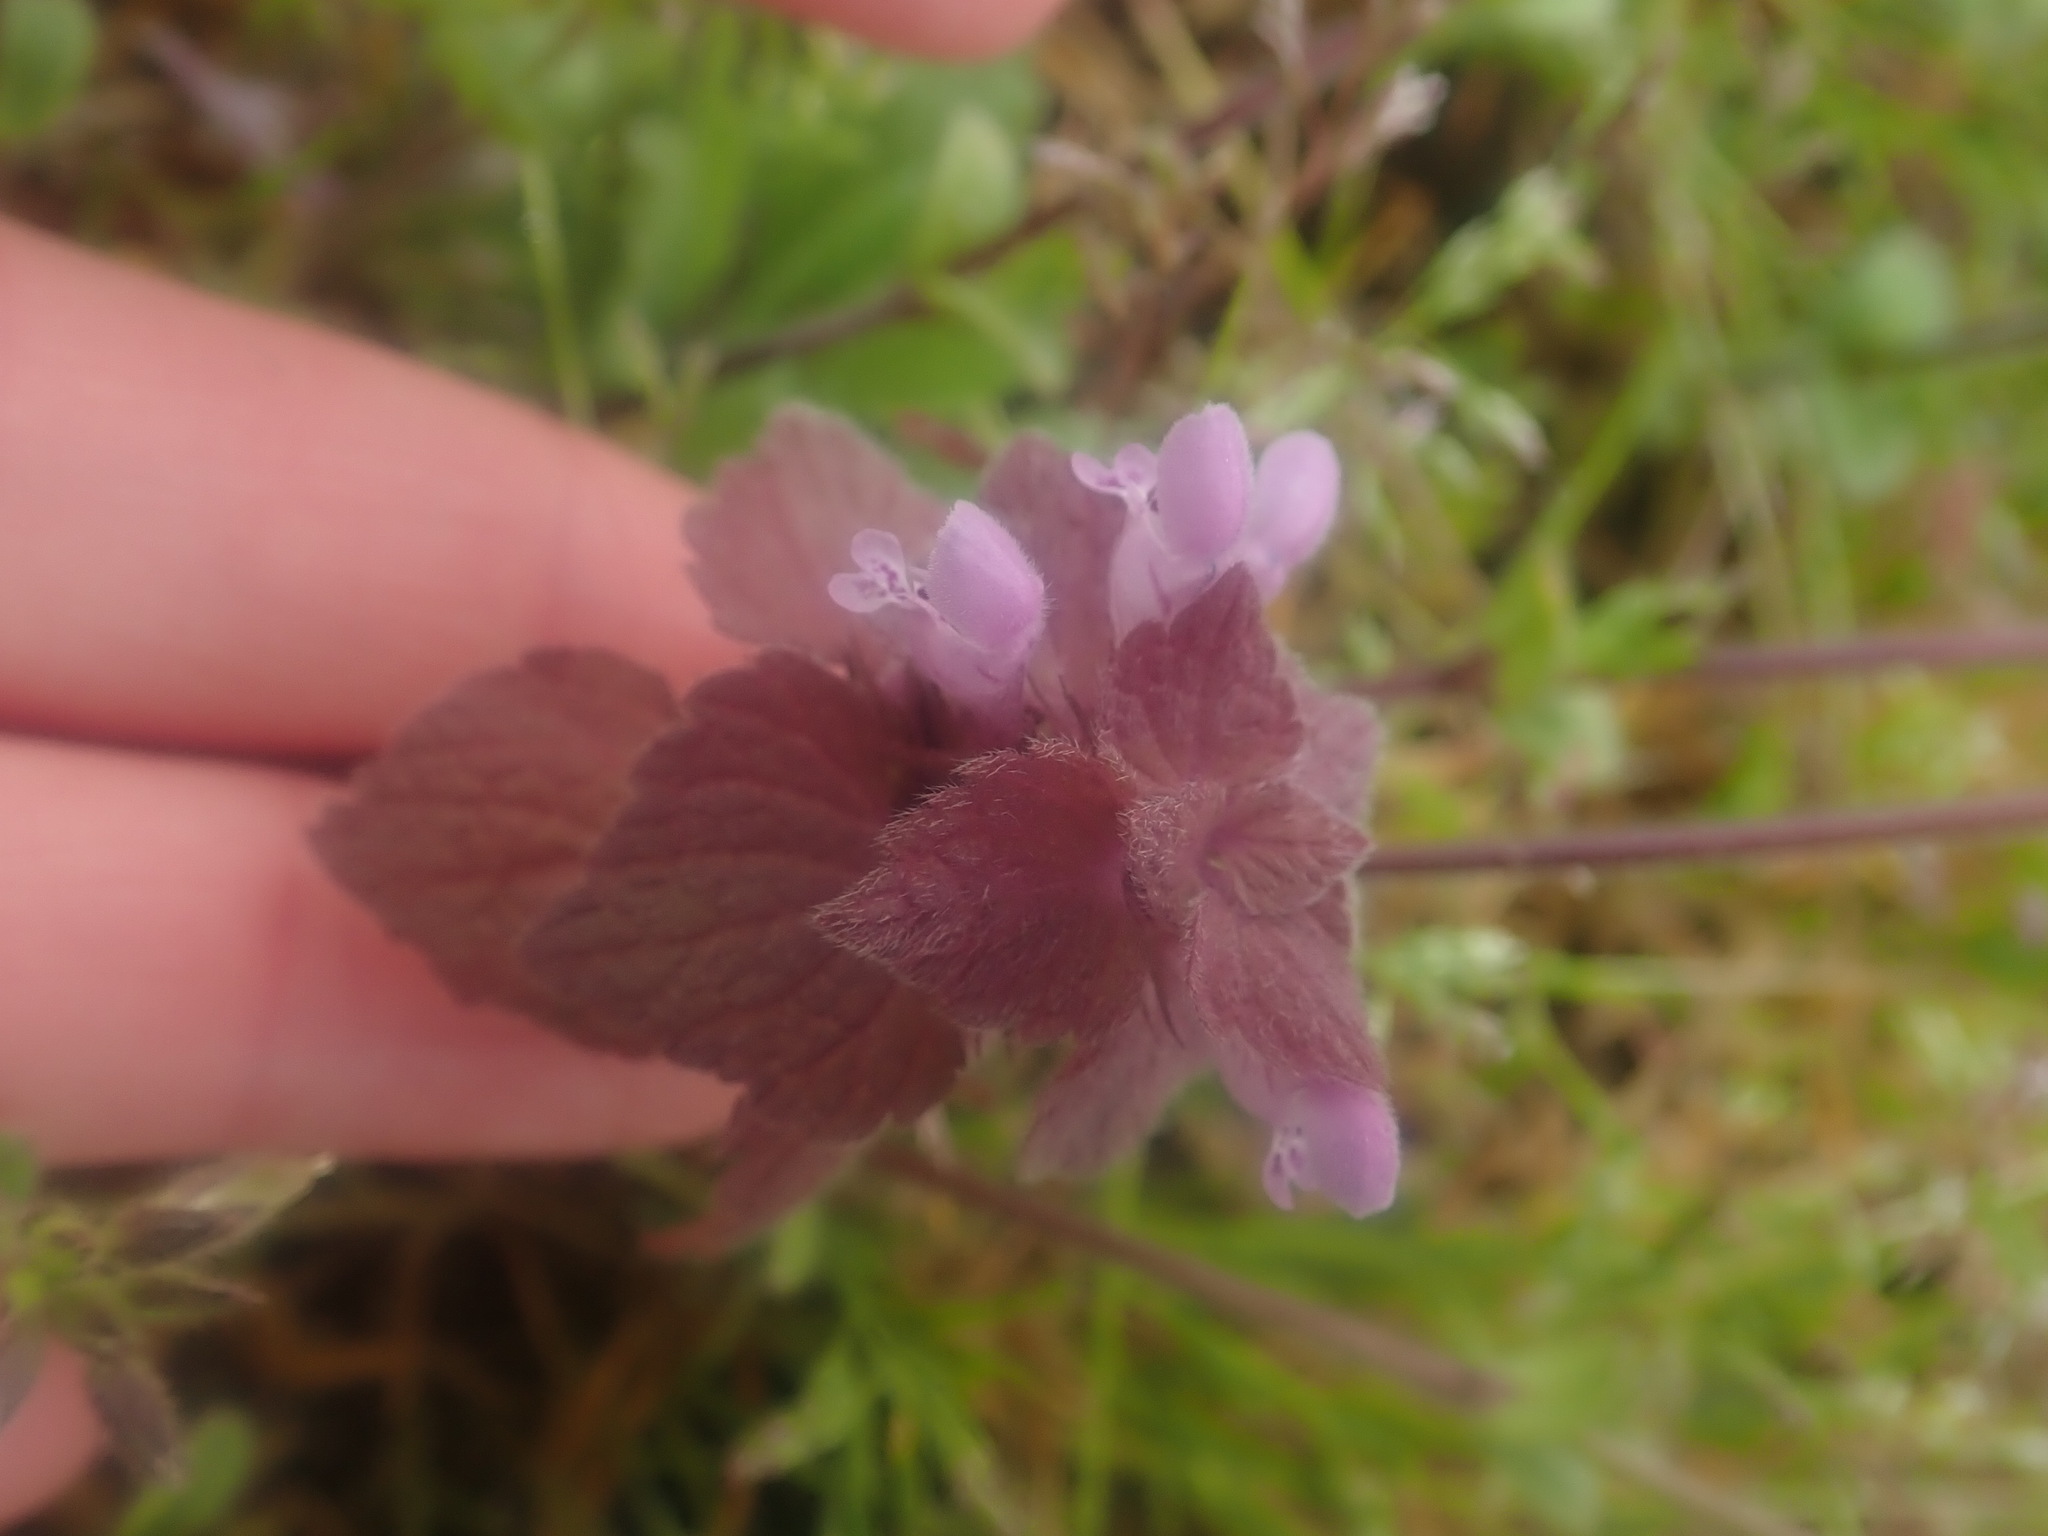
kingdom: Plantae
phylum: Tracheophyta
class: Magnoliopsida
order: Lamiales
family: Lamiaceae
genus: Lamium
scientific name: Lamium purpureum
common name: Red dead-nettle
